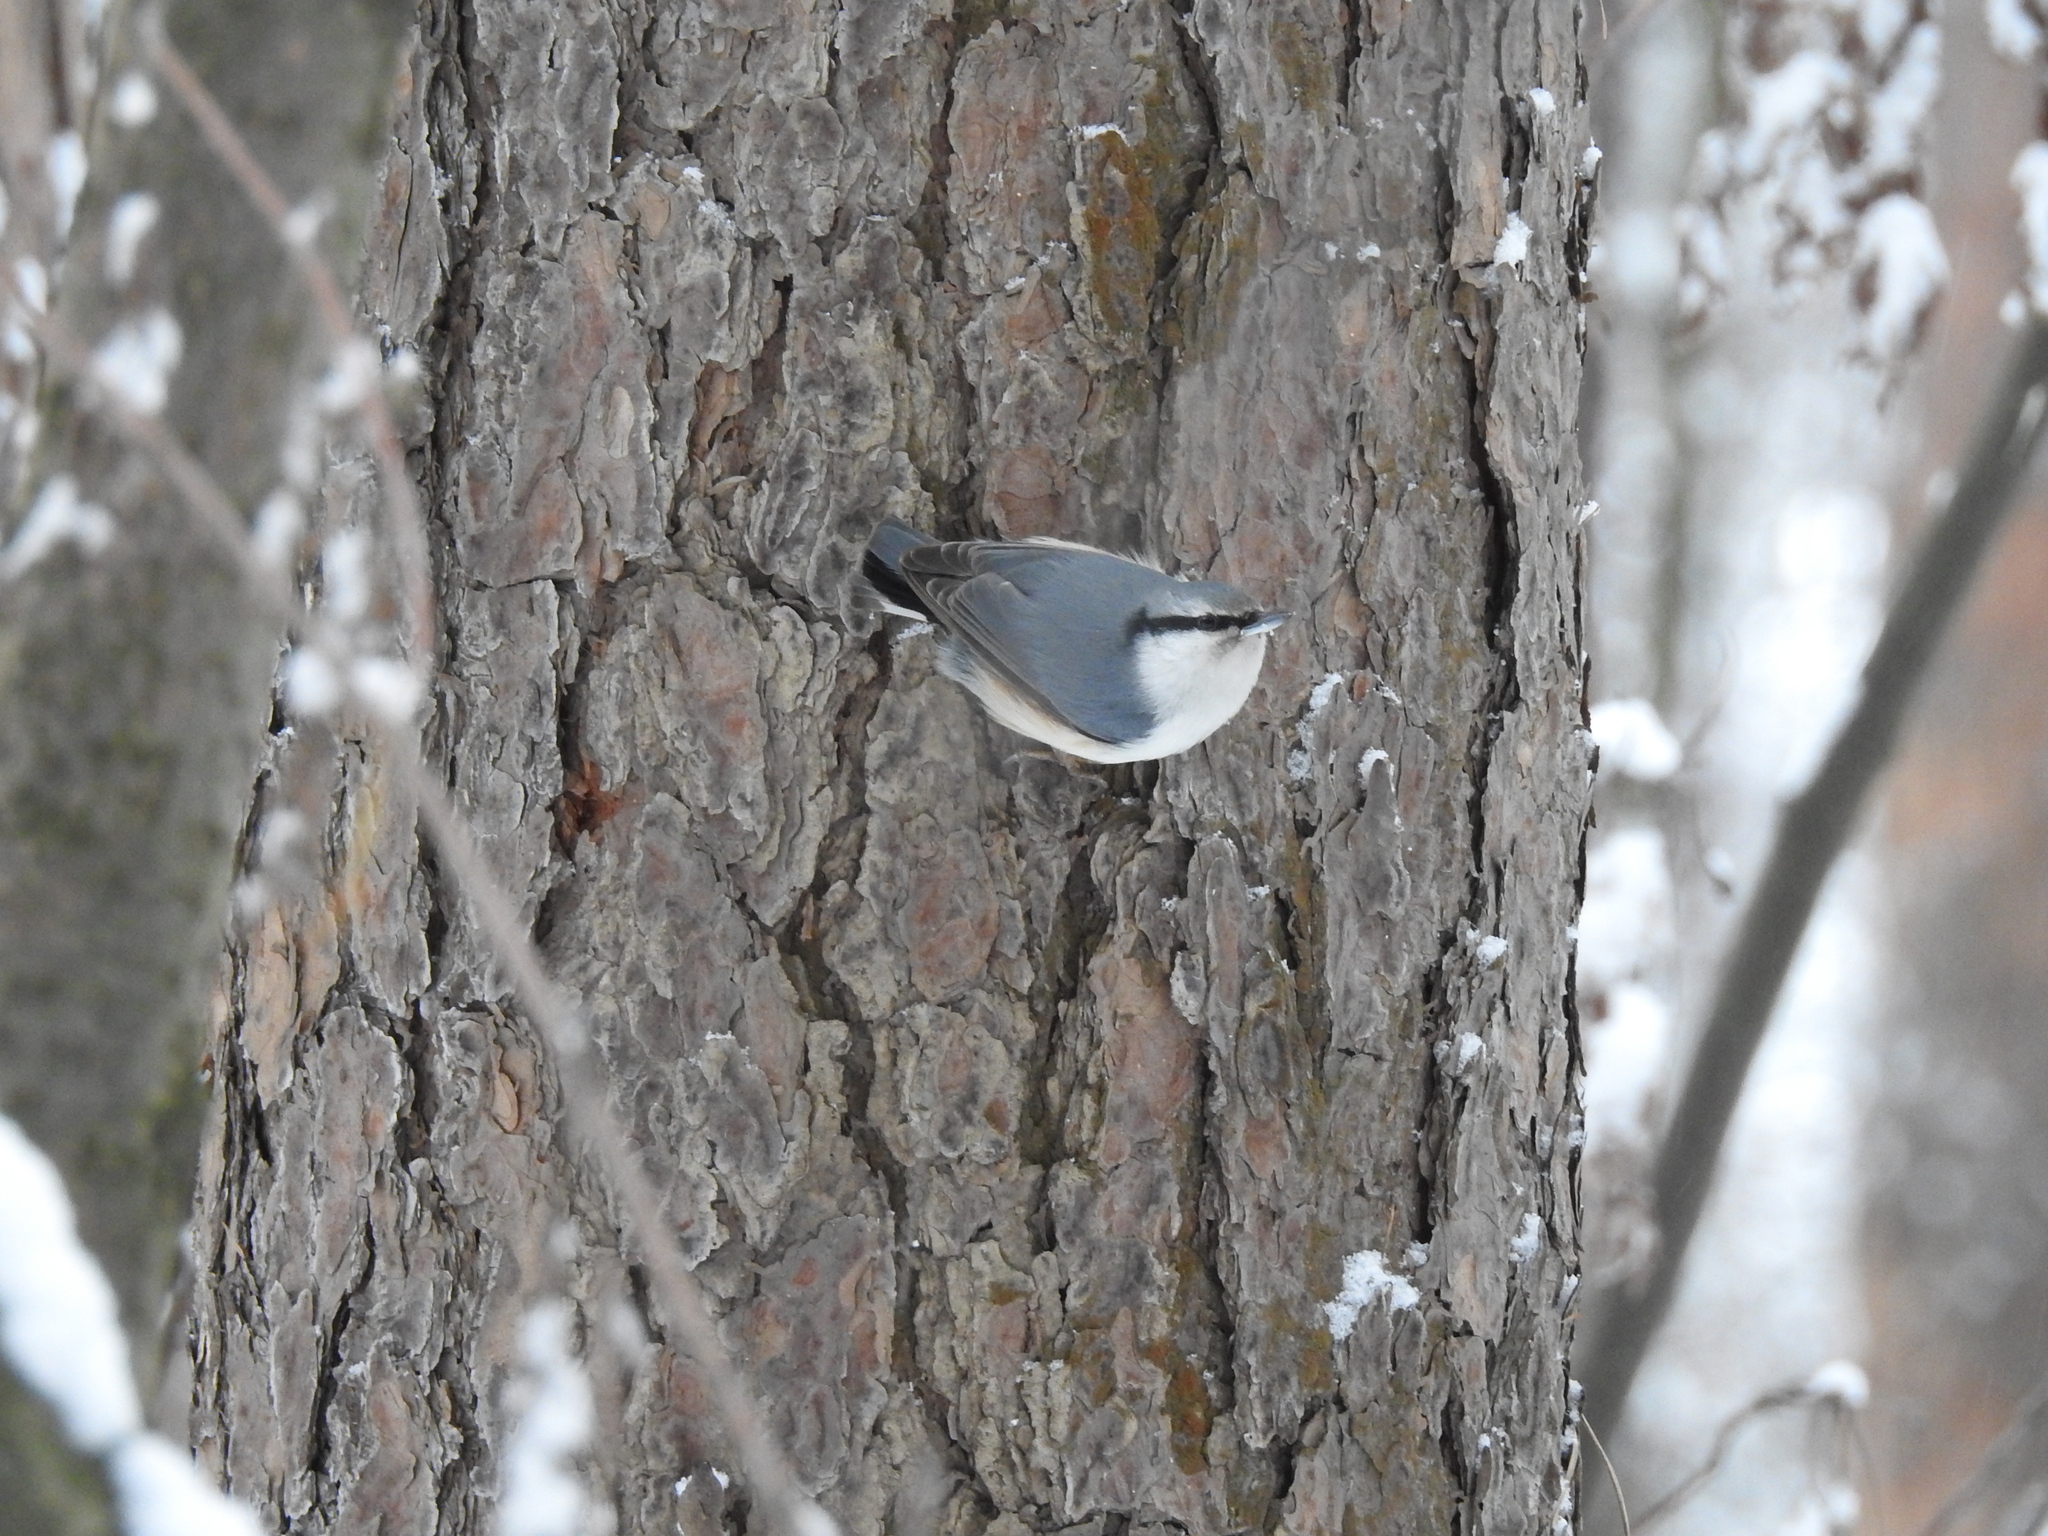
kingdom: Animalia
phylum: Chordata
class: Aves
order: Passeriformes
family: Sittidae
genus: Sitta
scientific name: Sitta europaea
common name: Eurasian nuthatch
